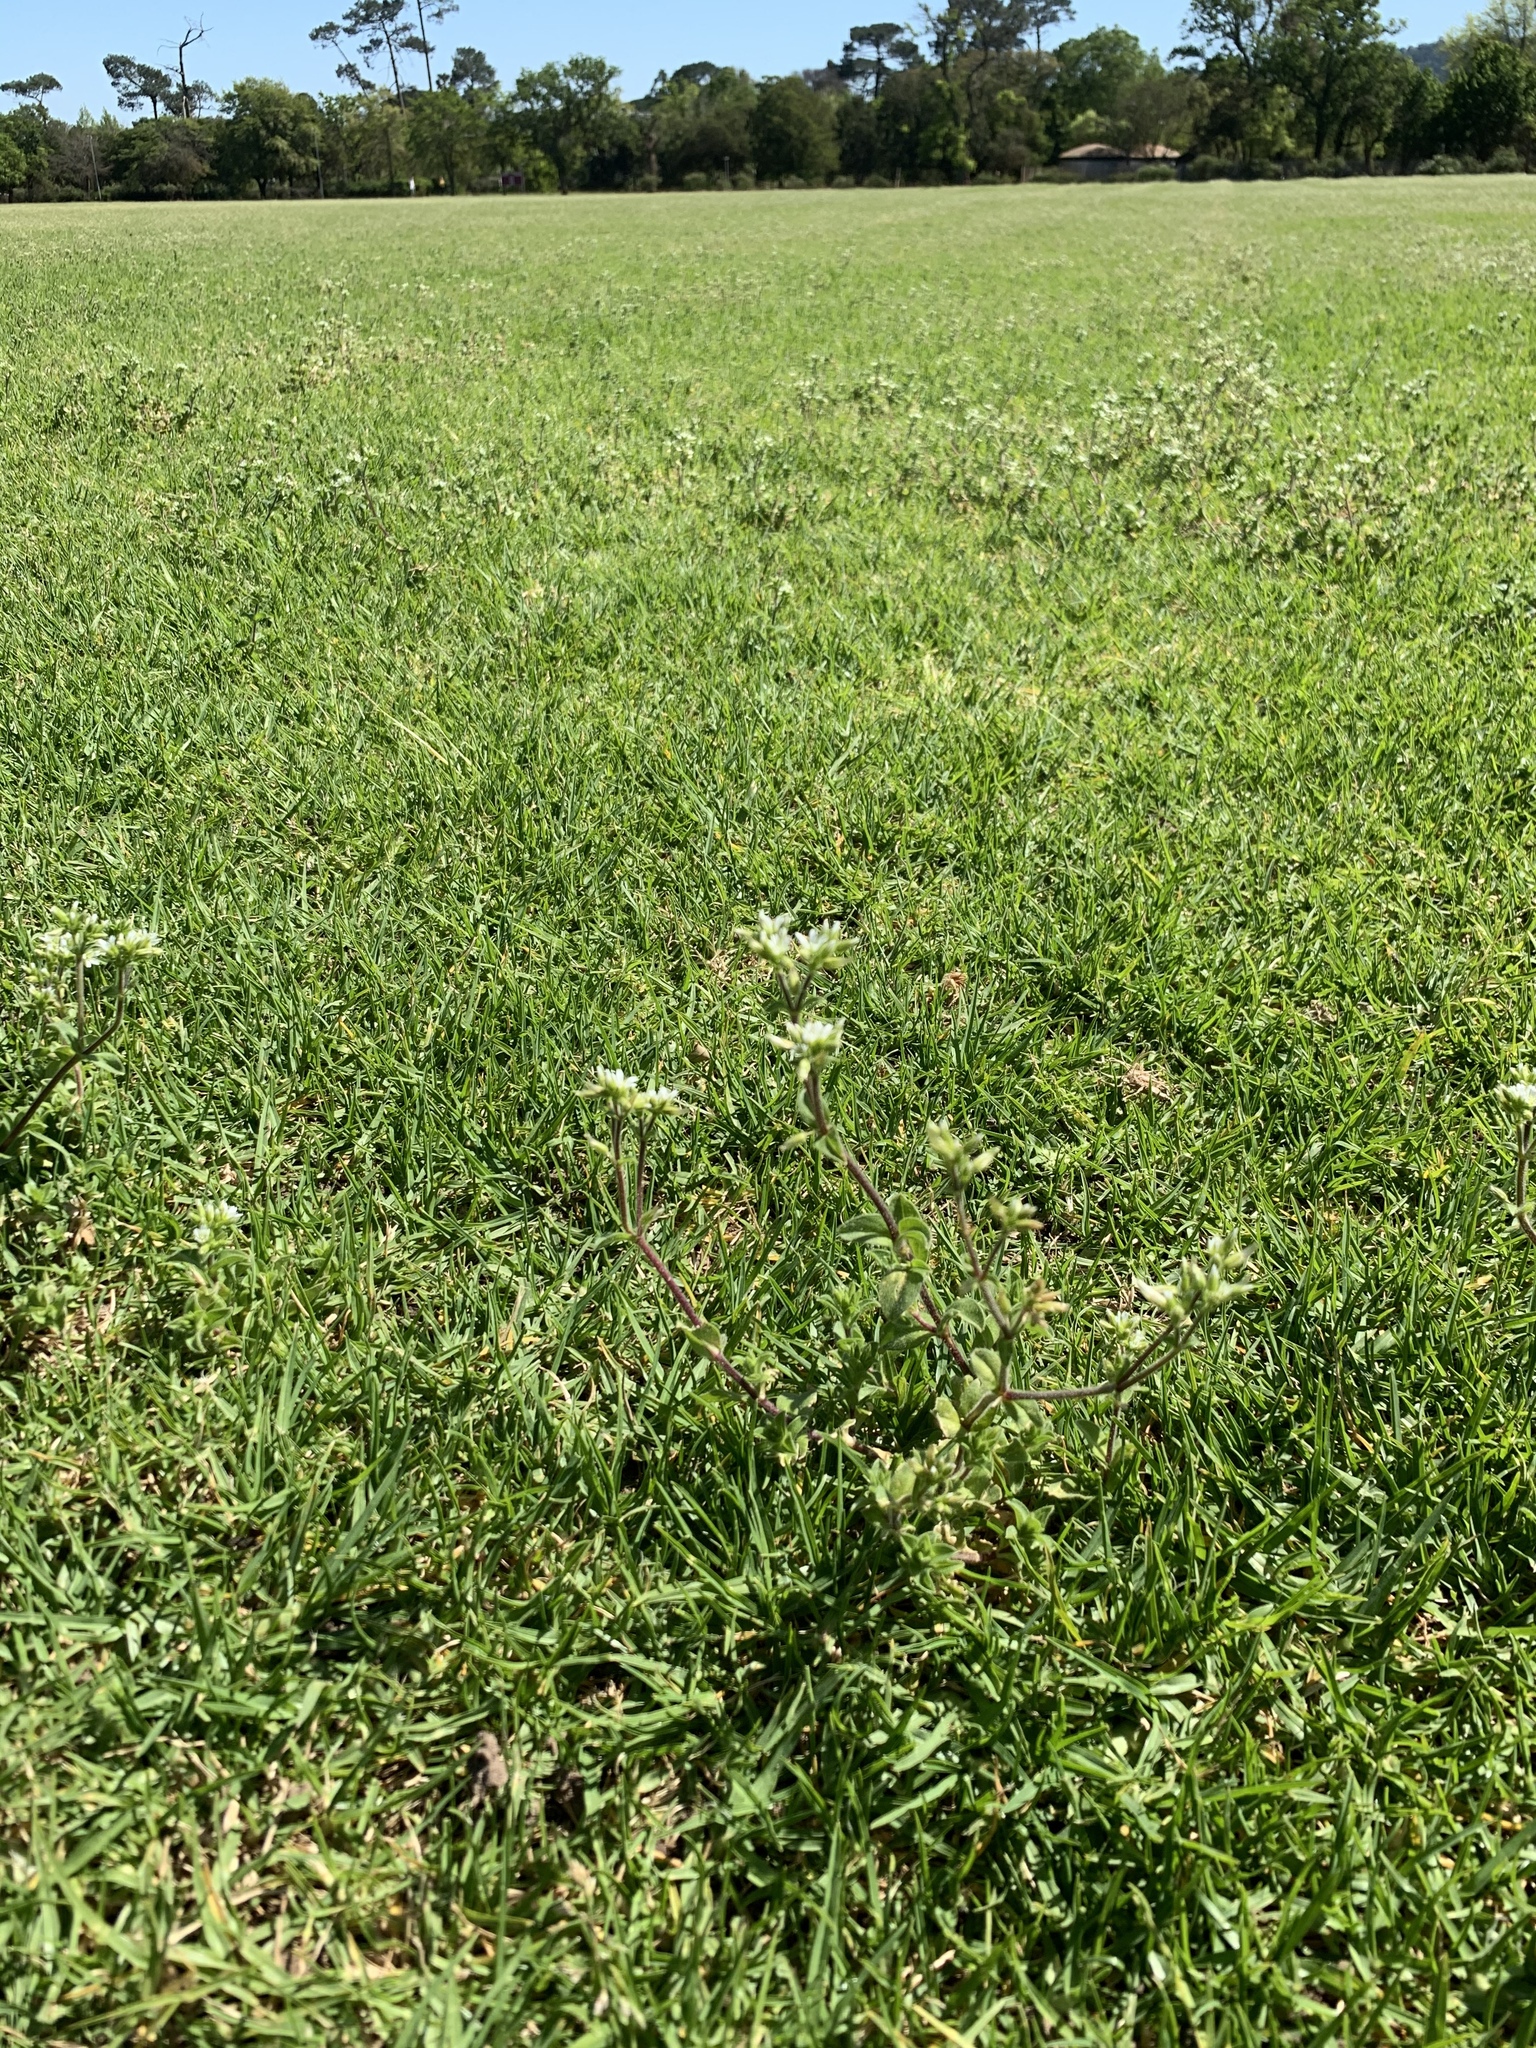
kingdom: Plantae
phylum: Tracheophyta
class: Magnoliopsida
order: Caryophyllales
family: Caryophyllaceae
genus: Cerastium
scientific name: Cerastium glomeratum
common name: Sticky chickweed
